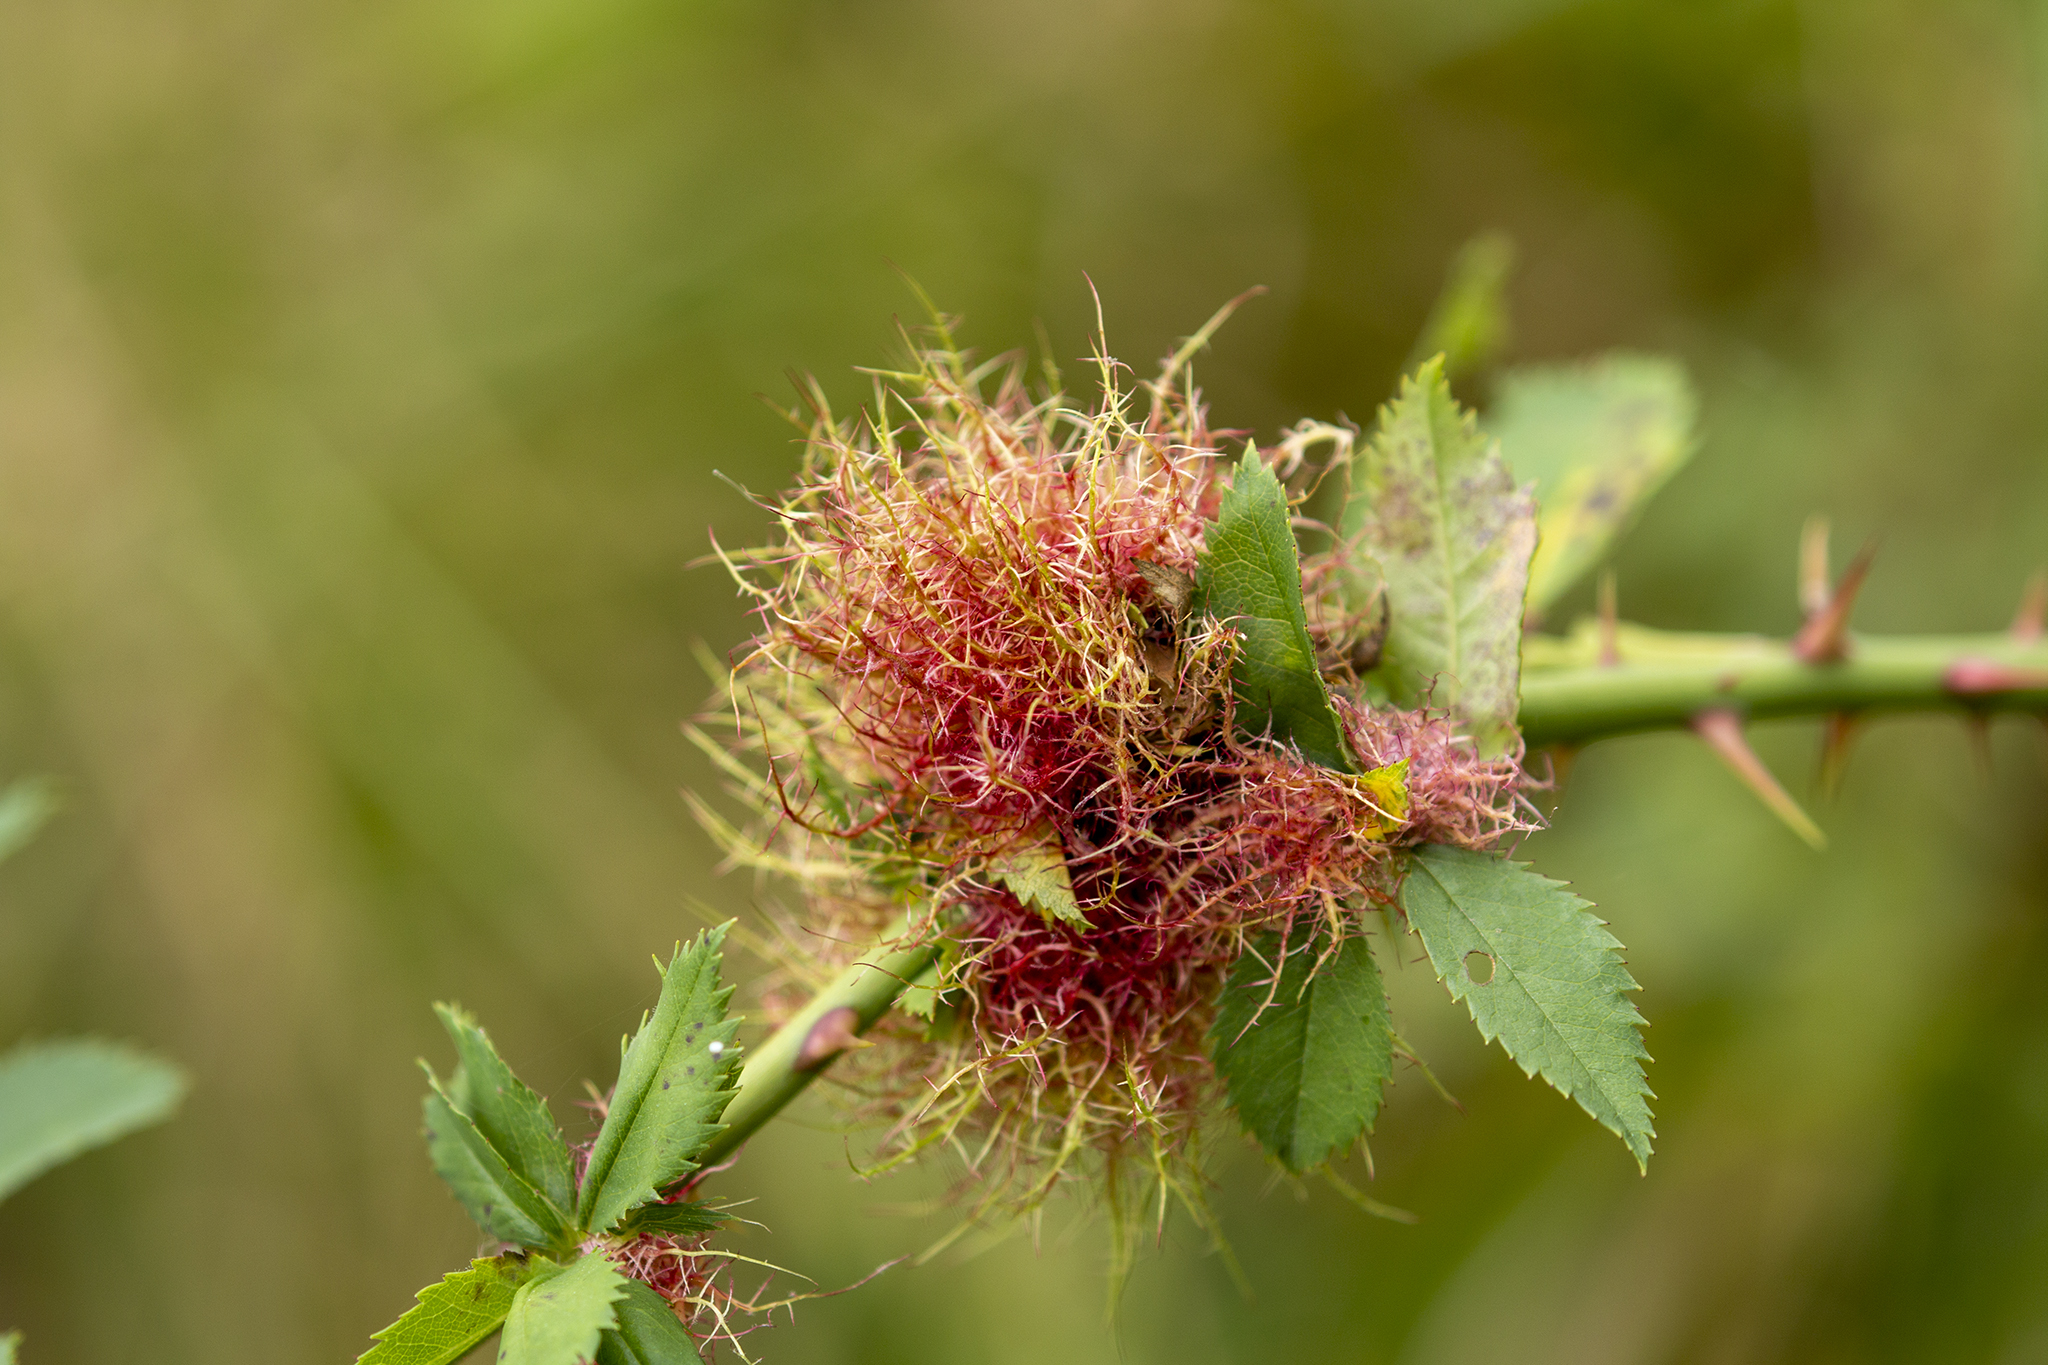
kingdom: Animalia
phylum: Arthropoda
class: Insecta
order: Hymenoptera
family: Cynipidae
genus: Diplolepis
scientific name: Diplolepis rosae
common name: Bedeguar gall
